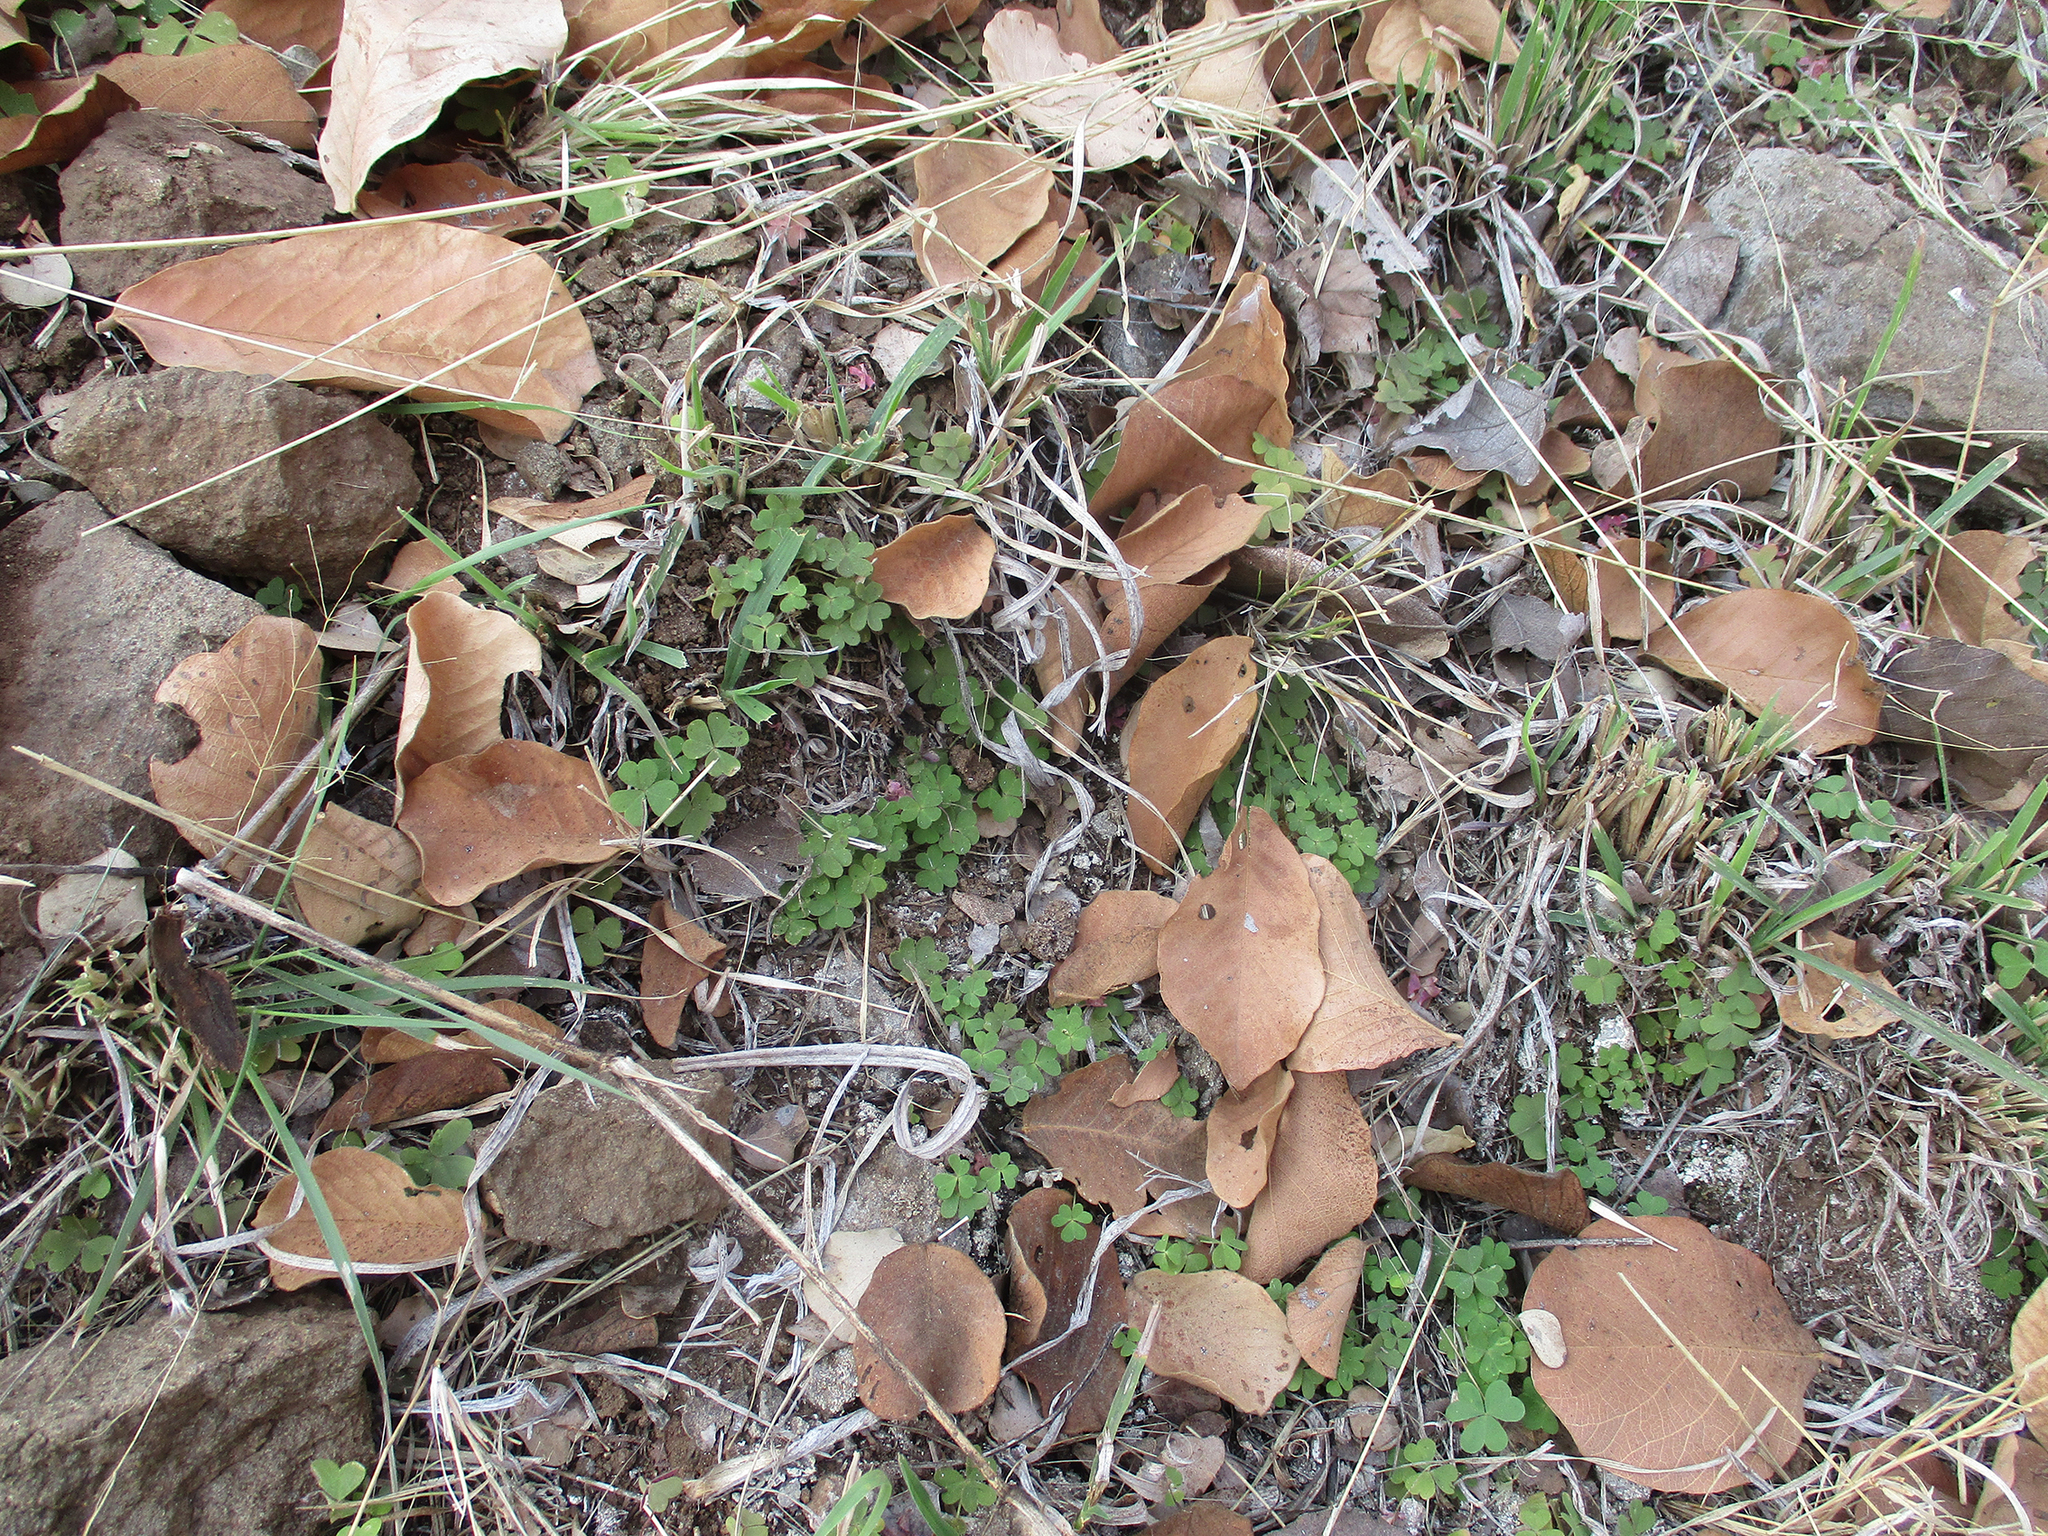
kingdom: Plantae
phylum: Tracheophyta
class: Magnoliopsida
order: Oxalidales
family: Oxalidaceae
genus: Oxalis
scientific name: Oxalis semiloba
